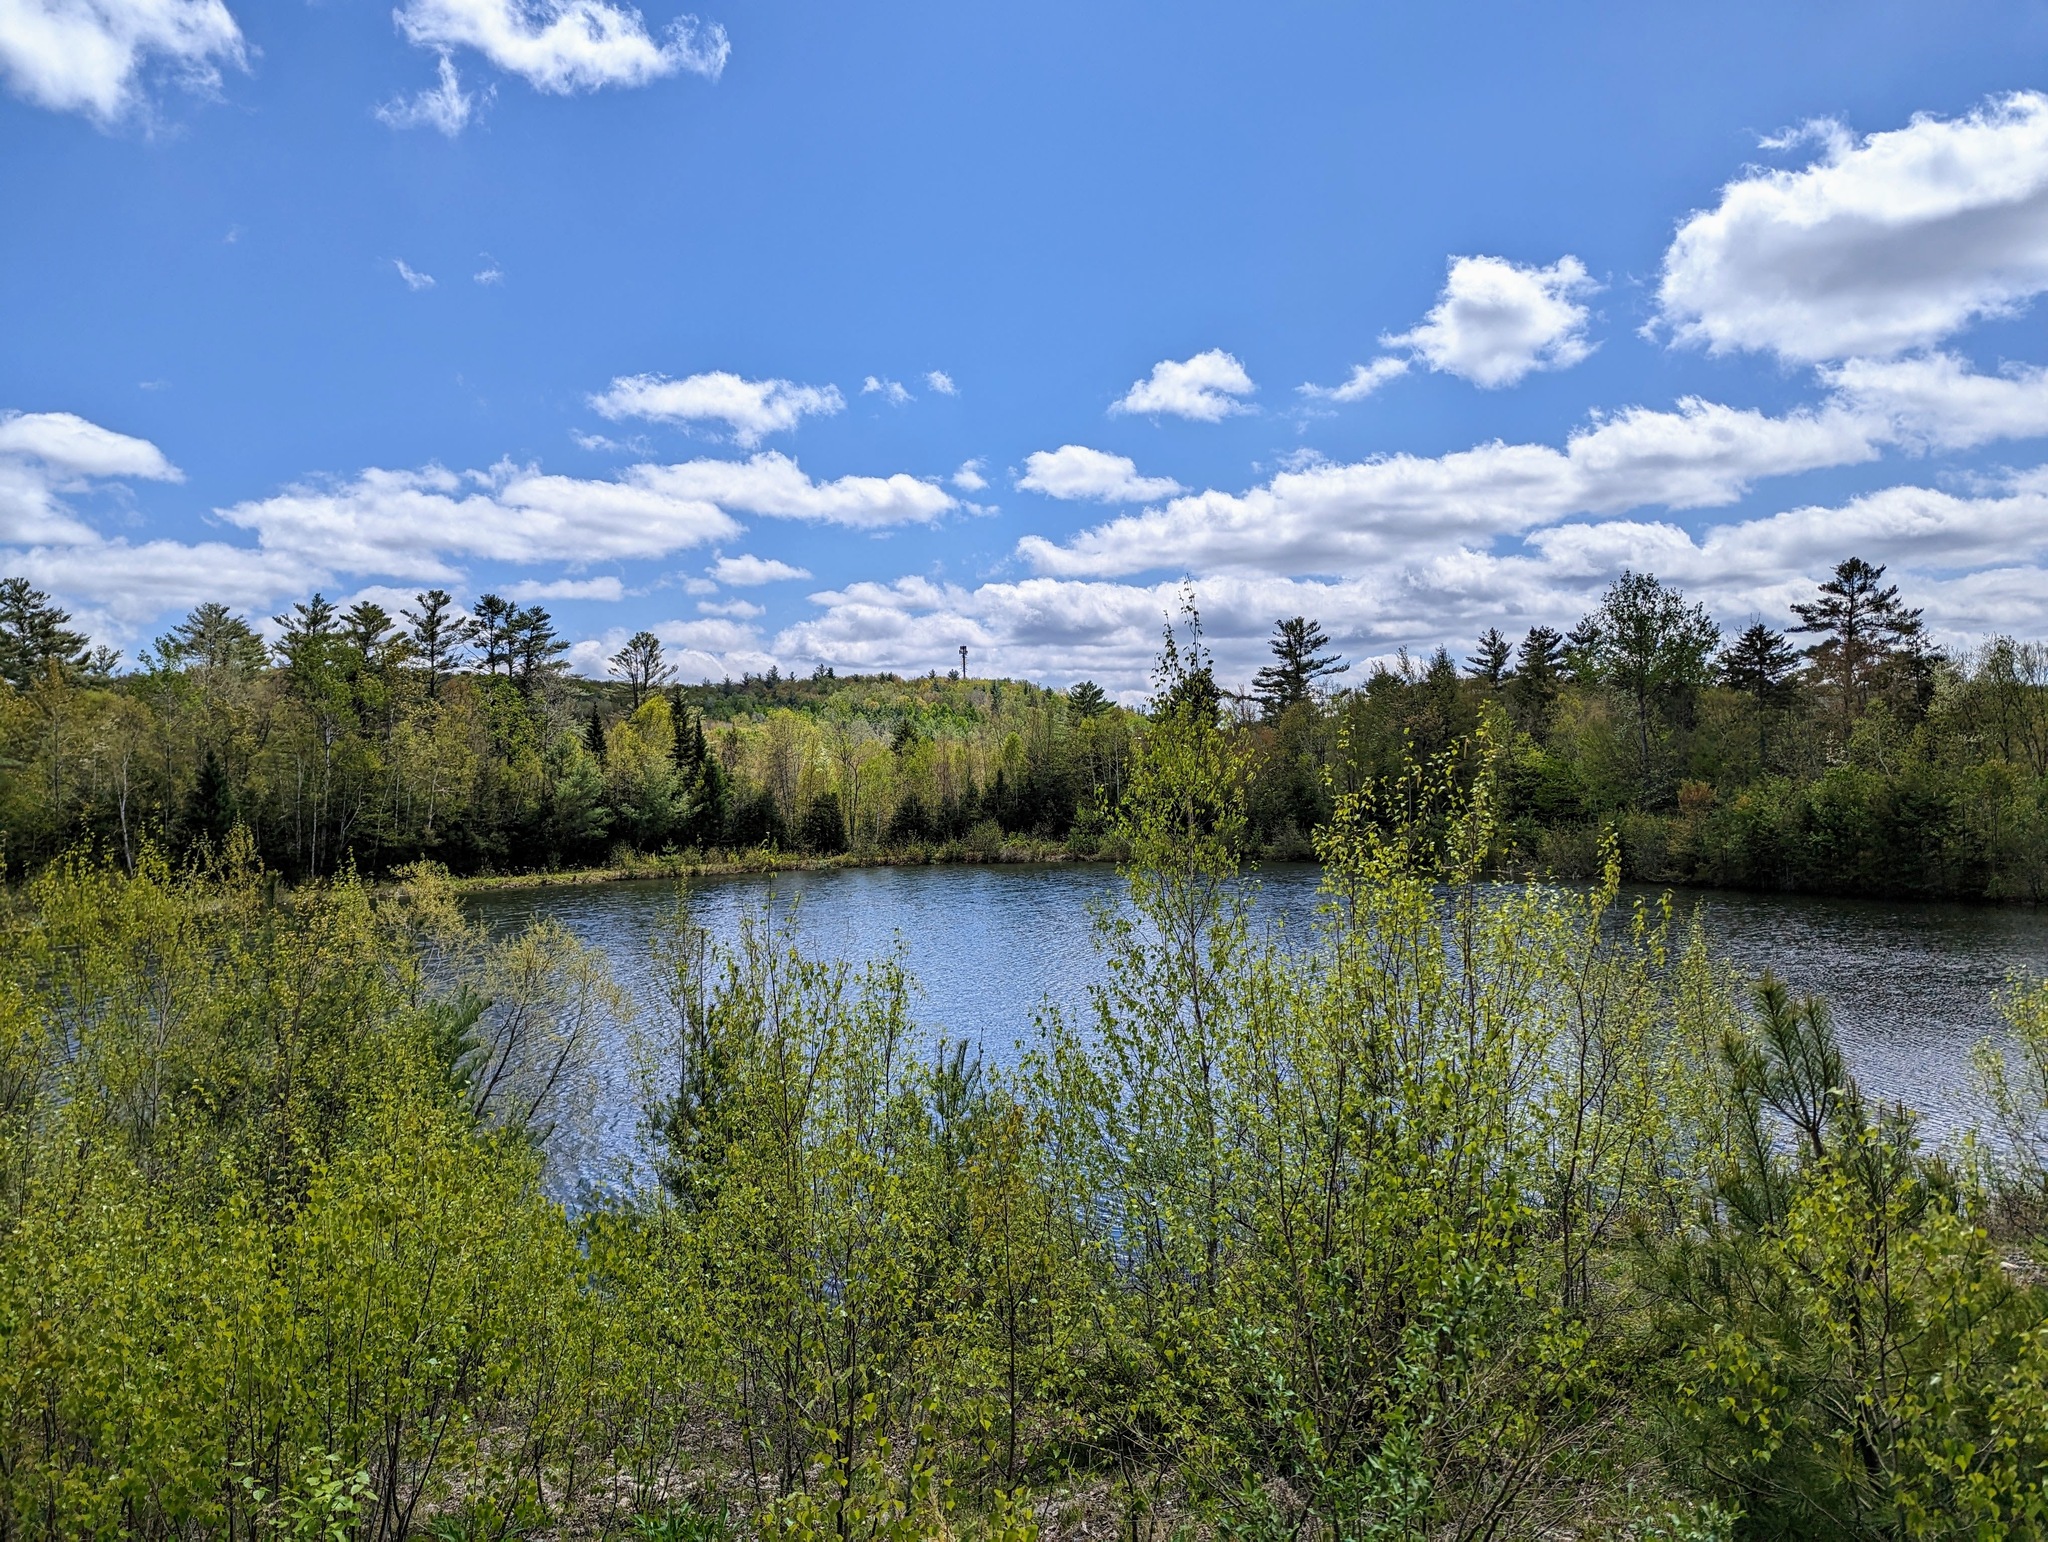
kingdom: Plantae
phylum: Tracheophyta
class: Pinopsida
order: Pinales
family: Pinaceae
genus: Pinus
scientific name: Pinus strobus
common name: Weymouth pine
